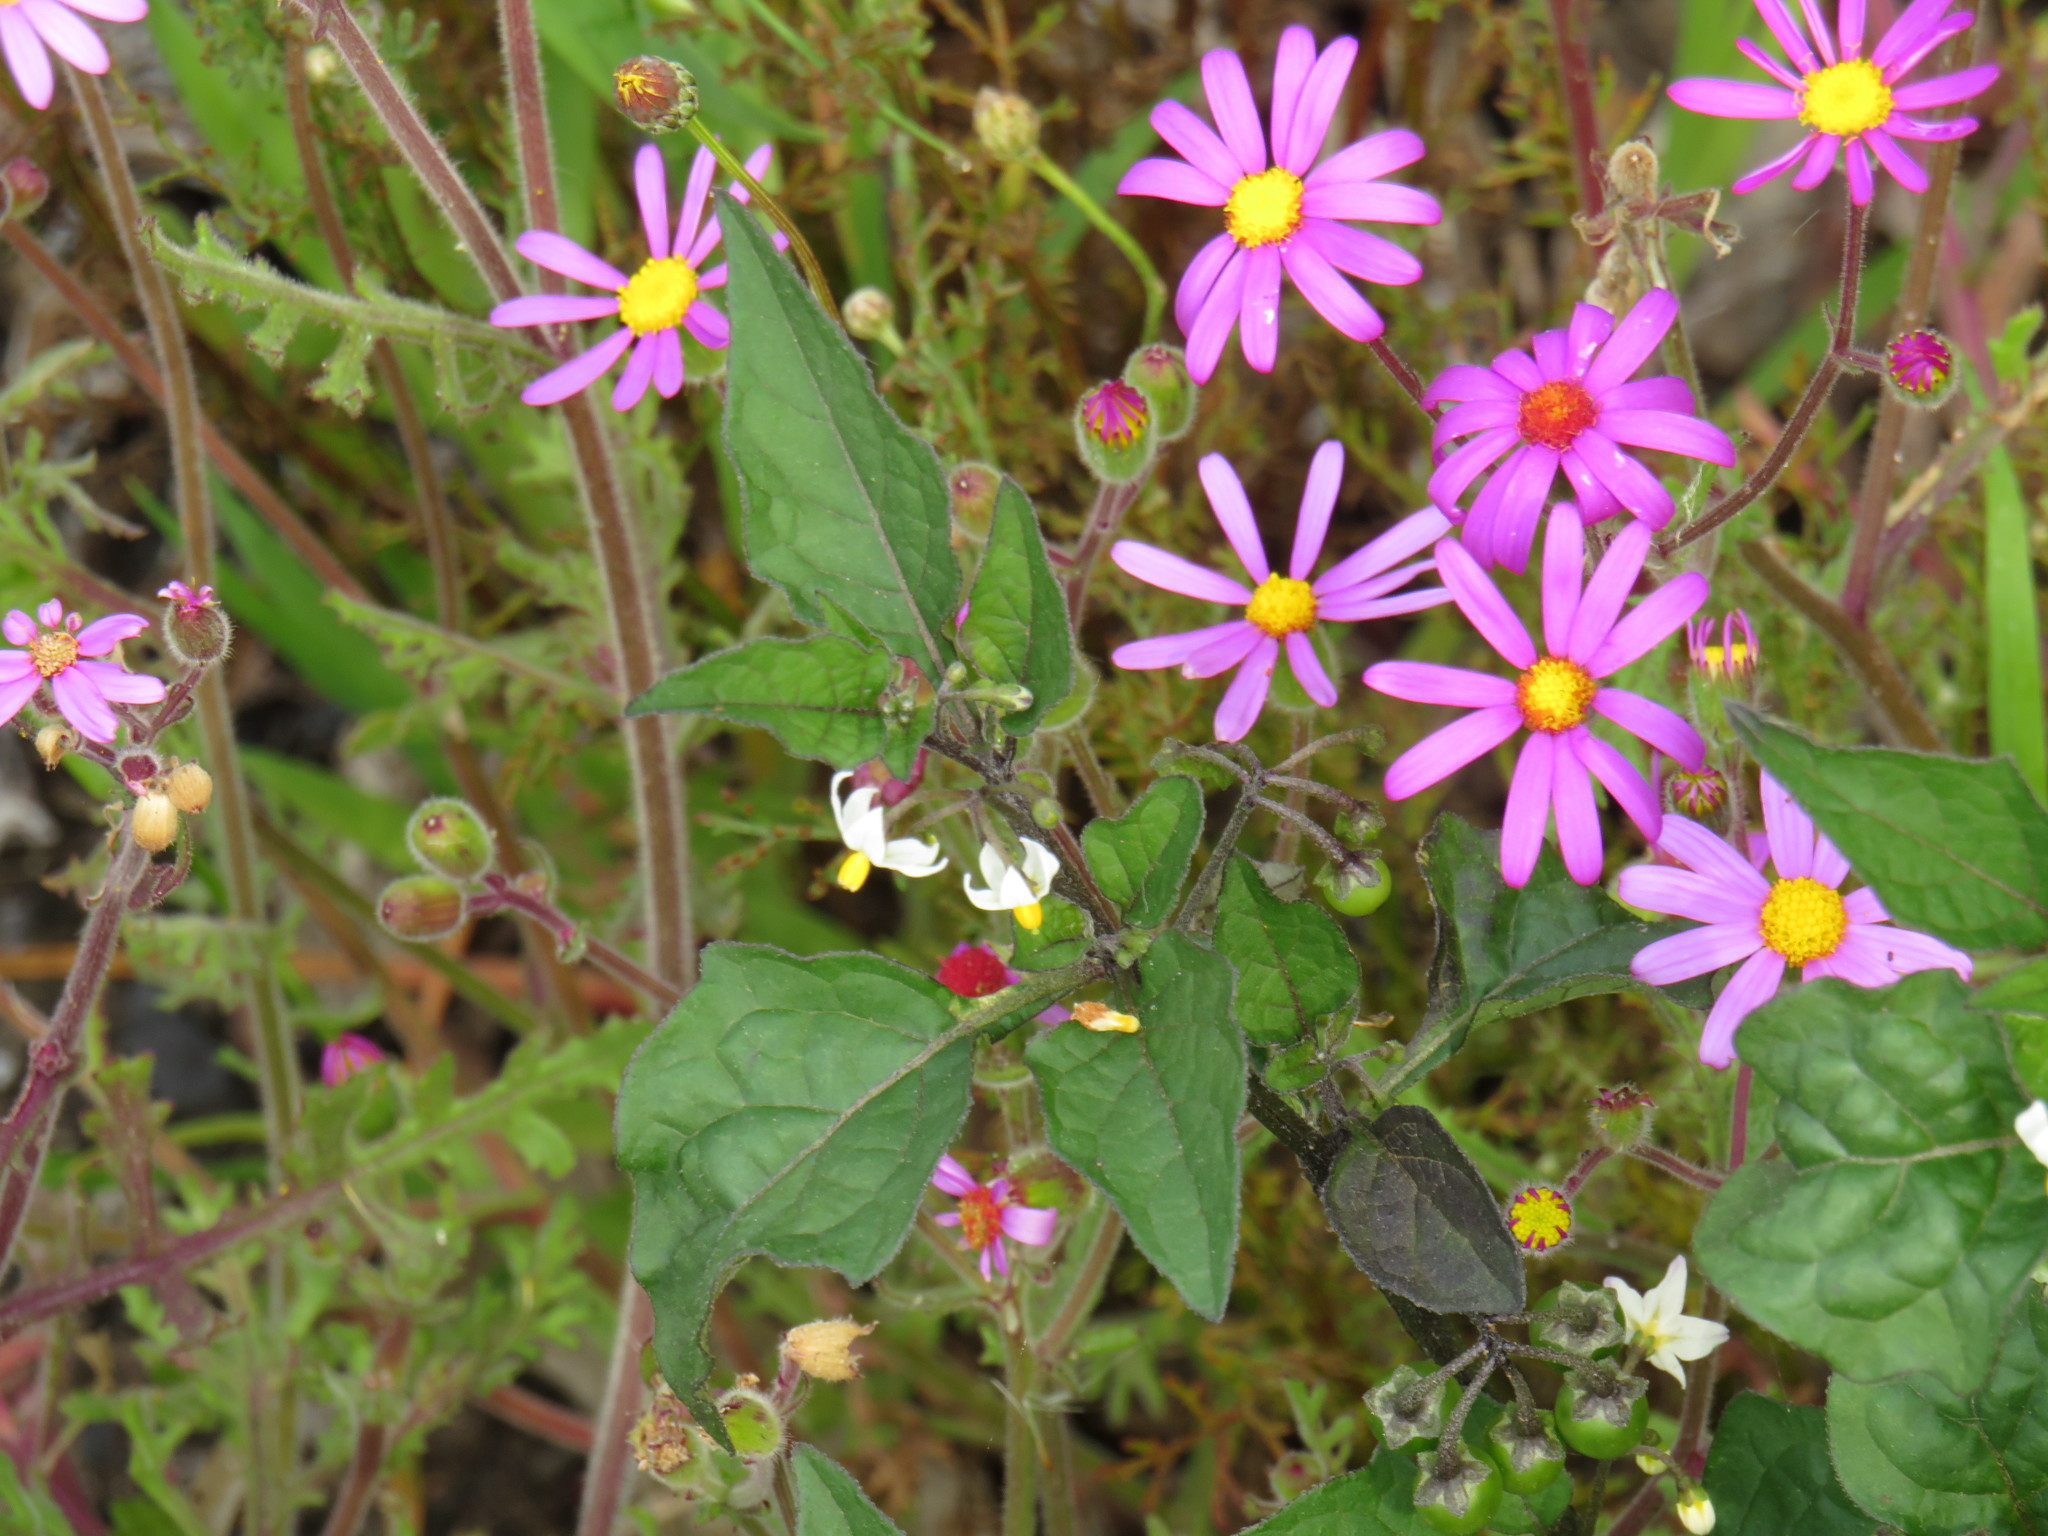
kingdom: Plantae
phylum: Tracheophyta
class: Magnoliopsida
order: Solanales
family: Solanaceae
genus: Solanum
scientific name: Solanum nigrum
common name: Black nightshade
